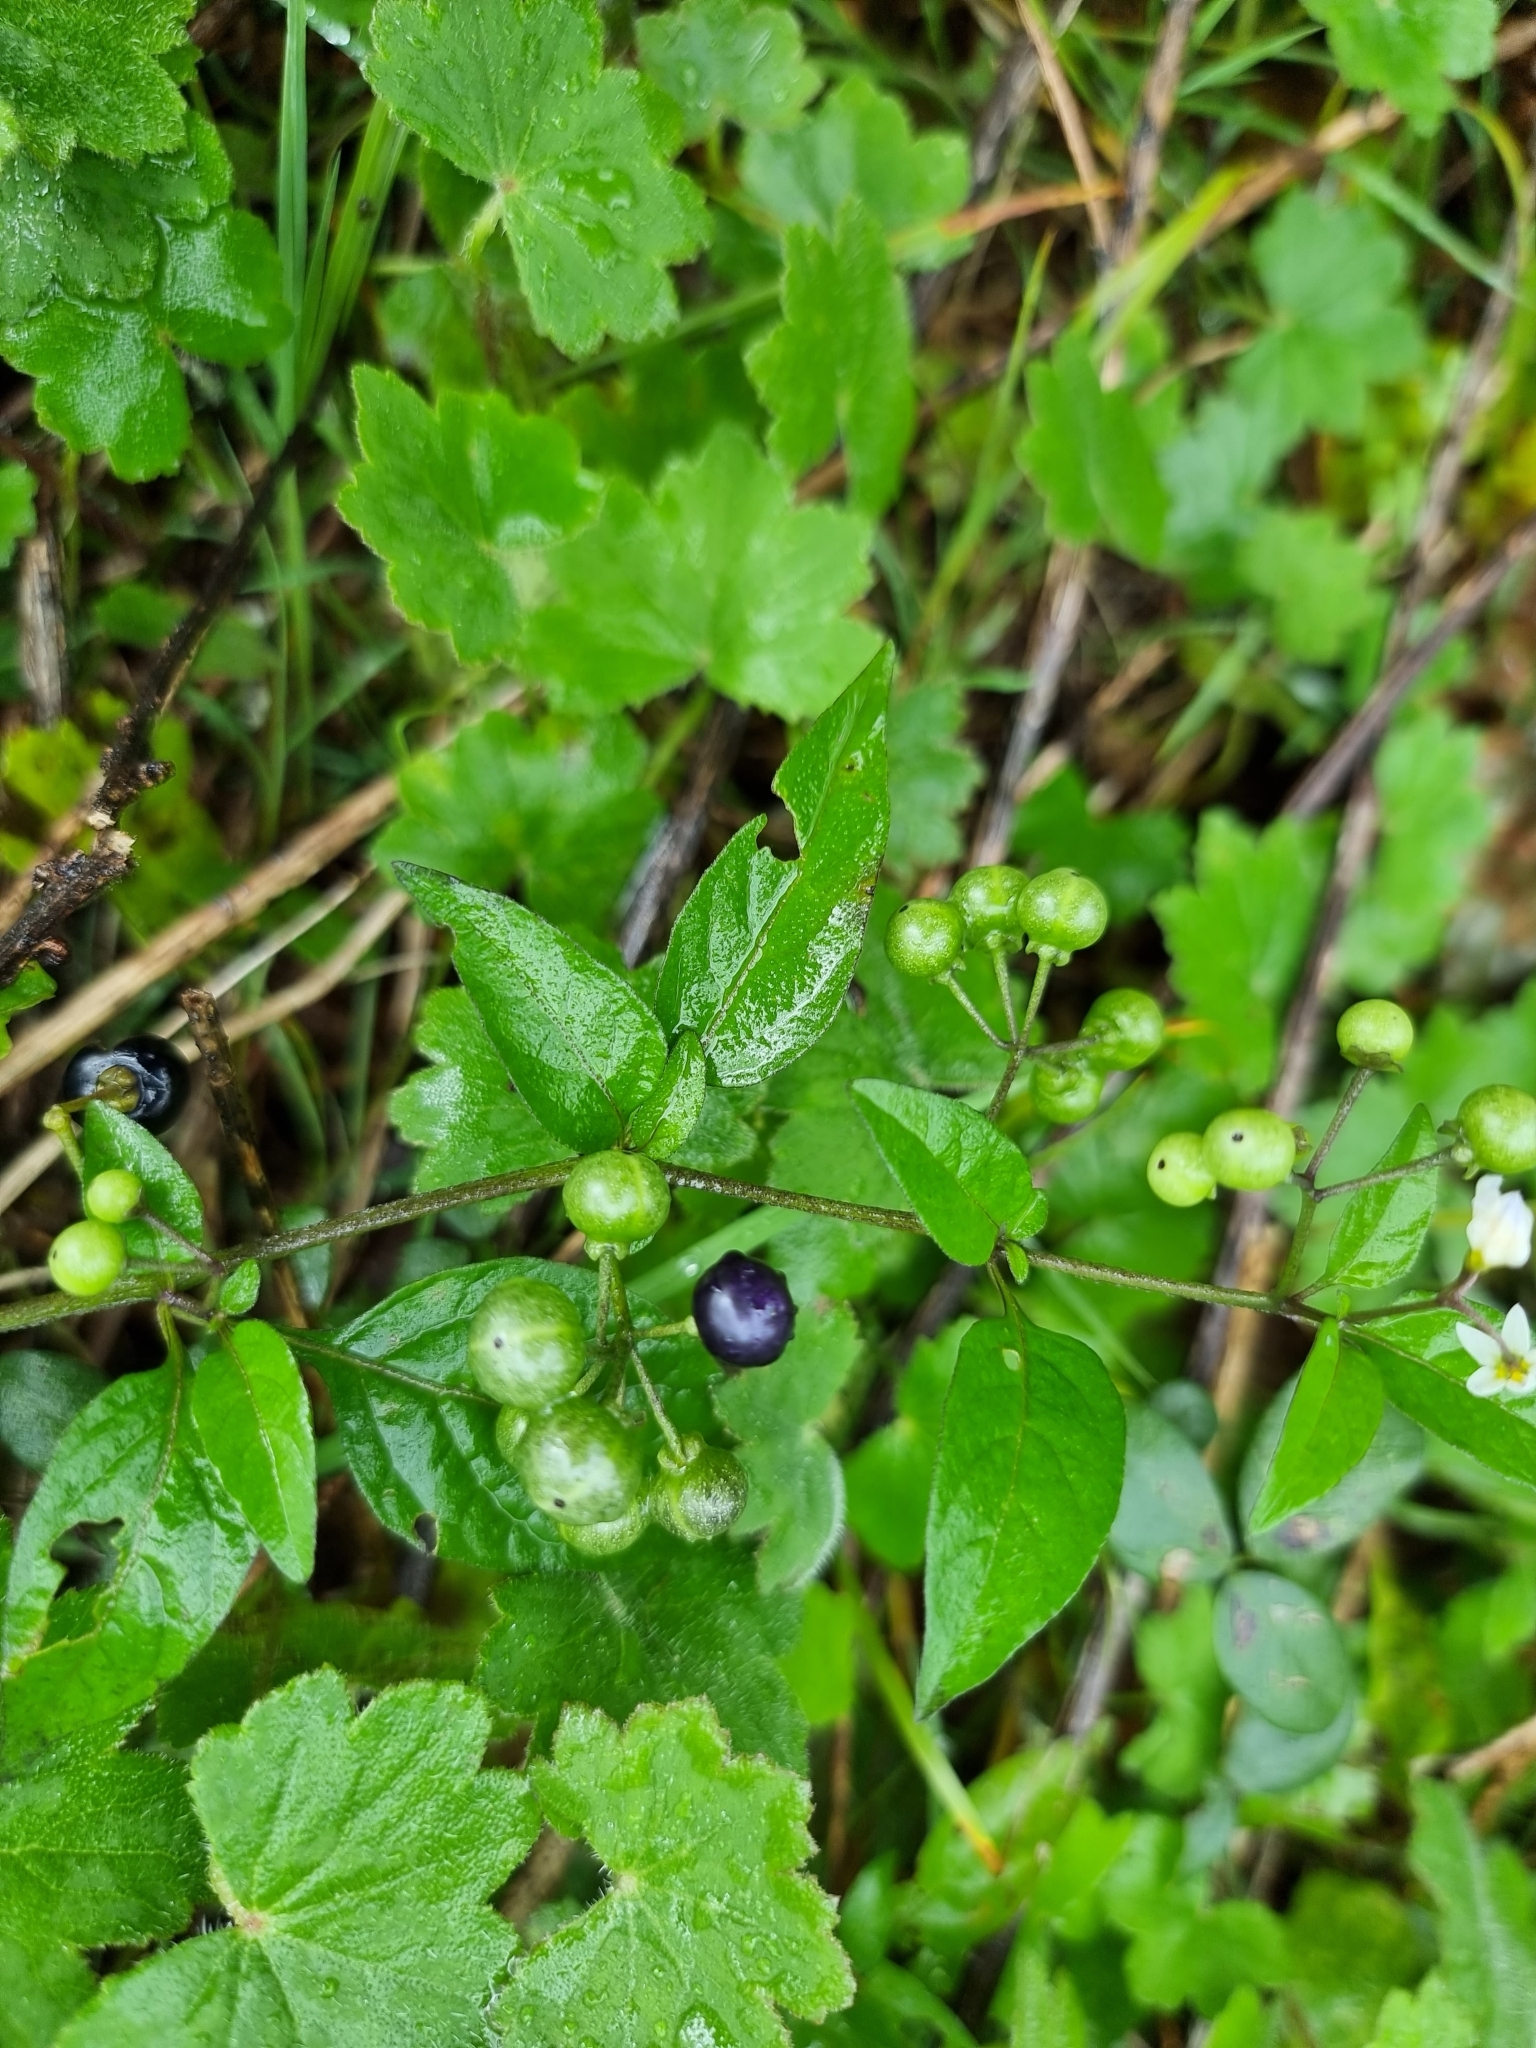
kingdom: Plantae
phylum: Tracheophyta
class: Magnoliopsida
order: Solanales
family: Solanaceae
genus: Solanum
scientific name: Solanum americanum
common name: American black nightshade
